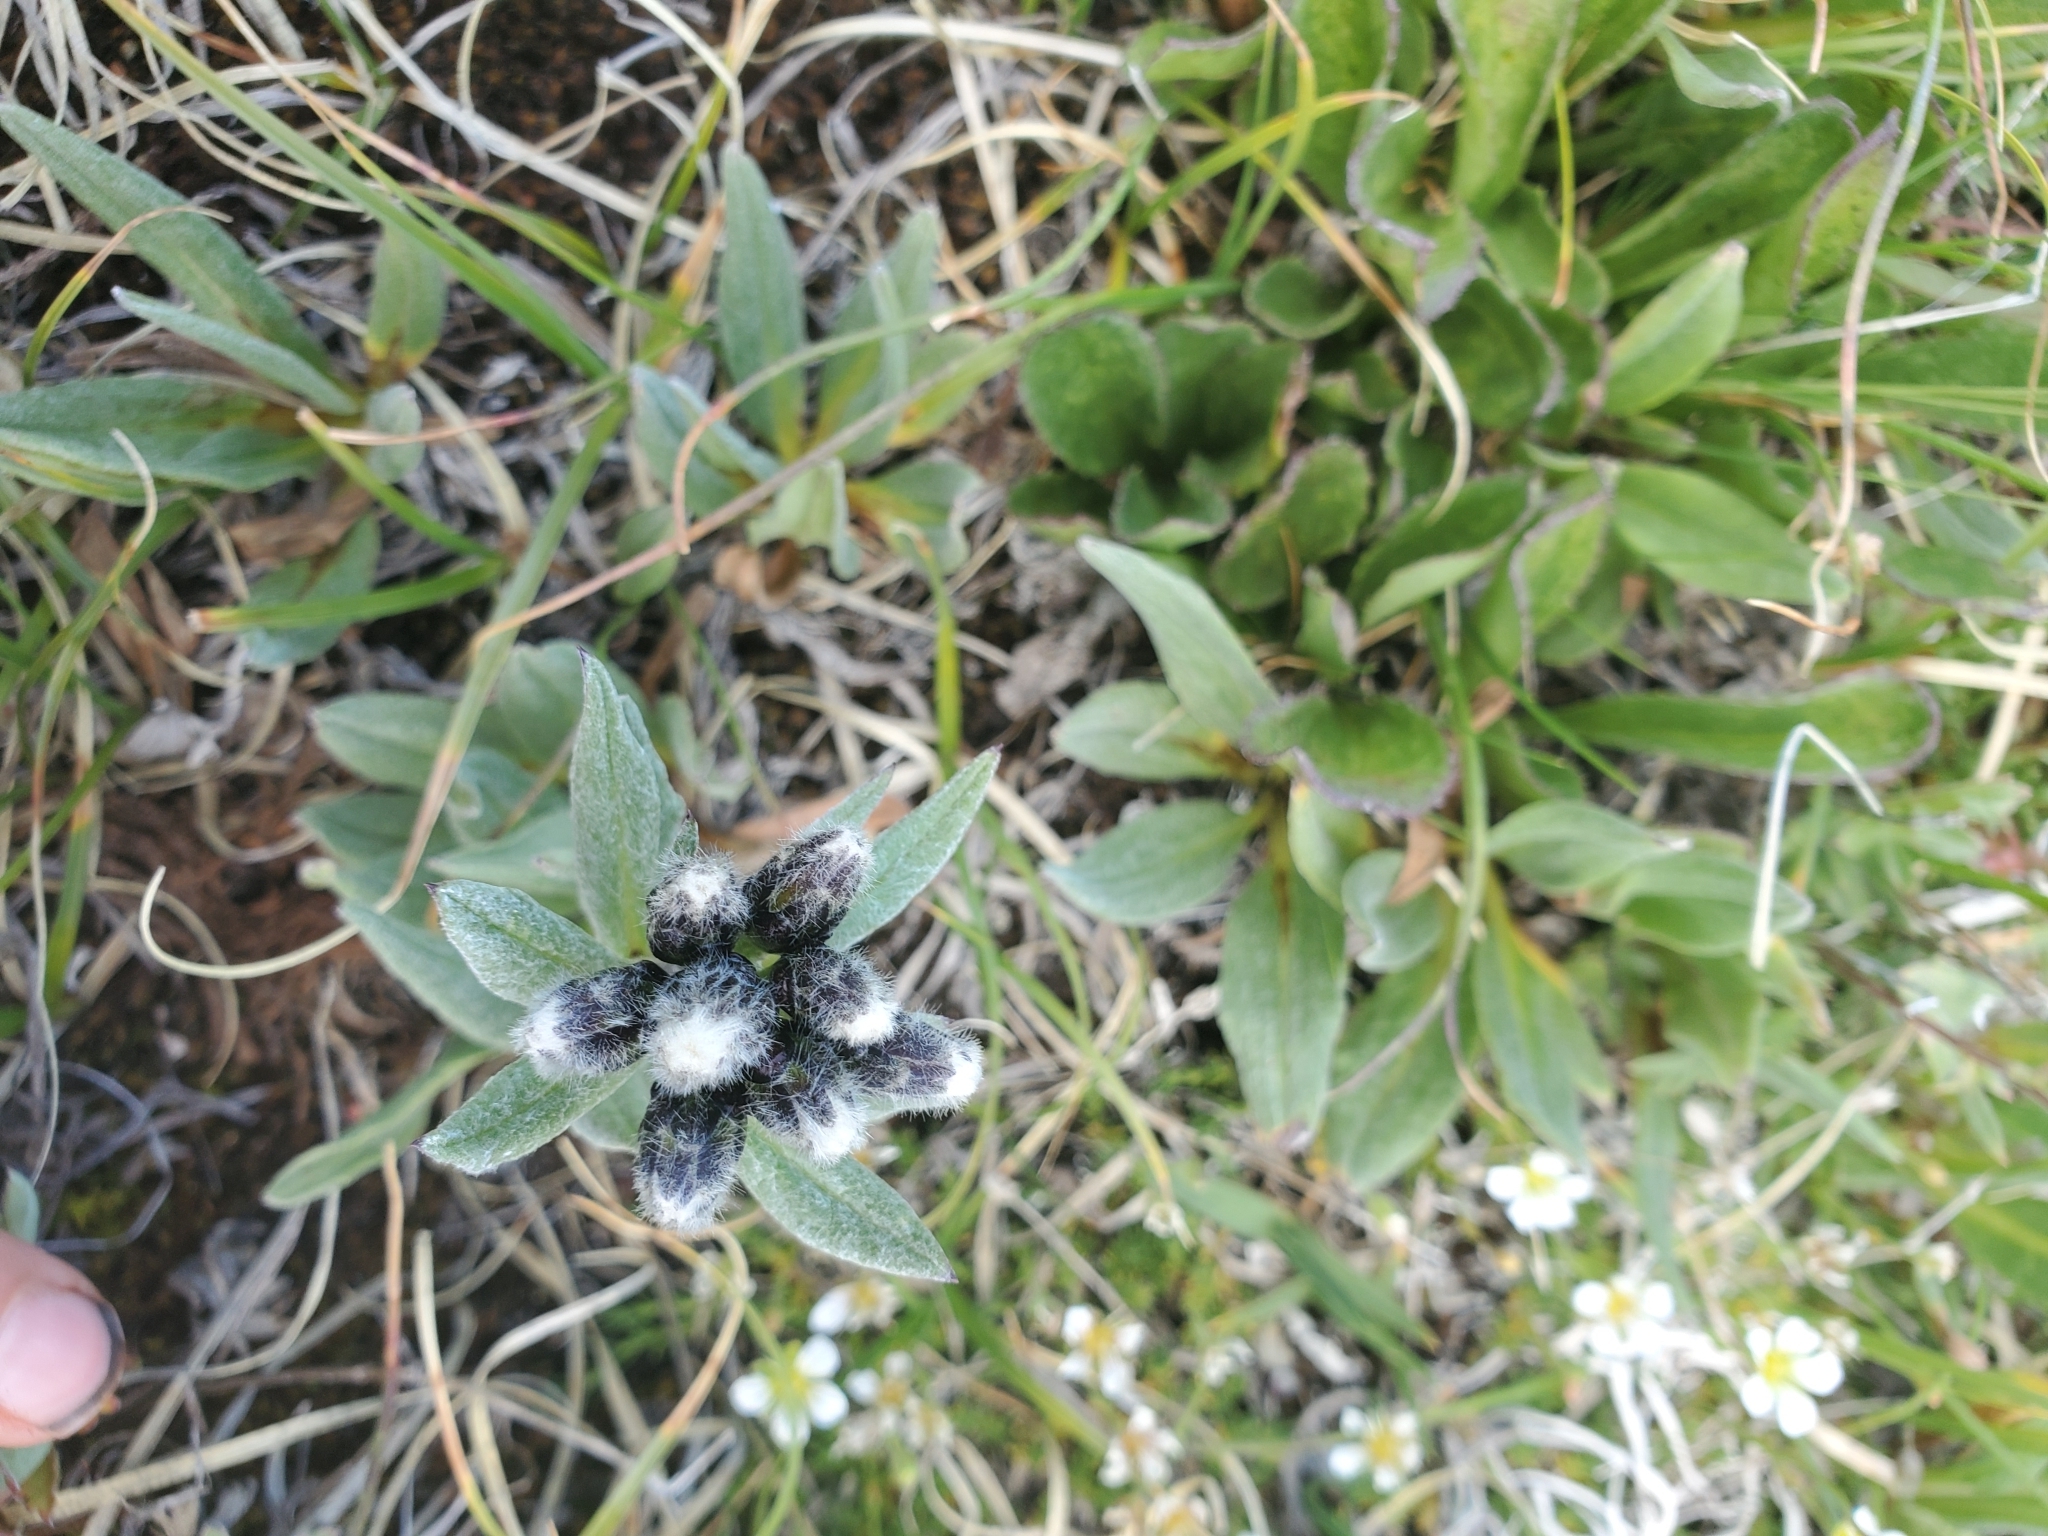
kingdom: Plantae
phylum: Tracheophyta
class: Magnoliopsida
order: Asterales
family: Asteraceae
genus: Saussurea
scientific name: Saussurea weberi
